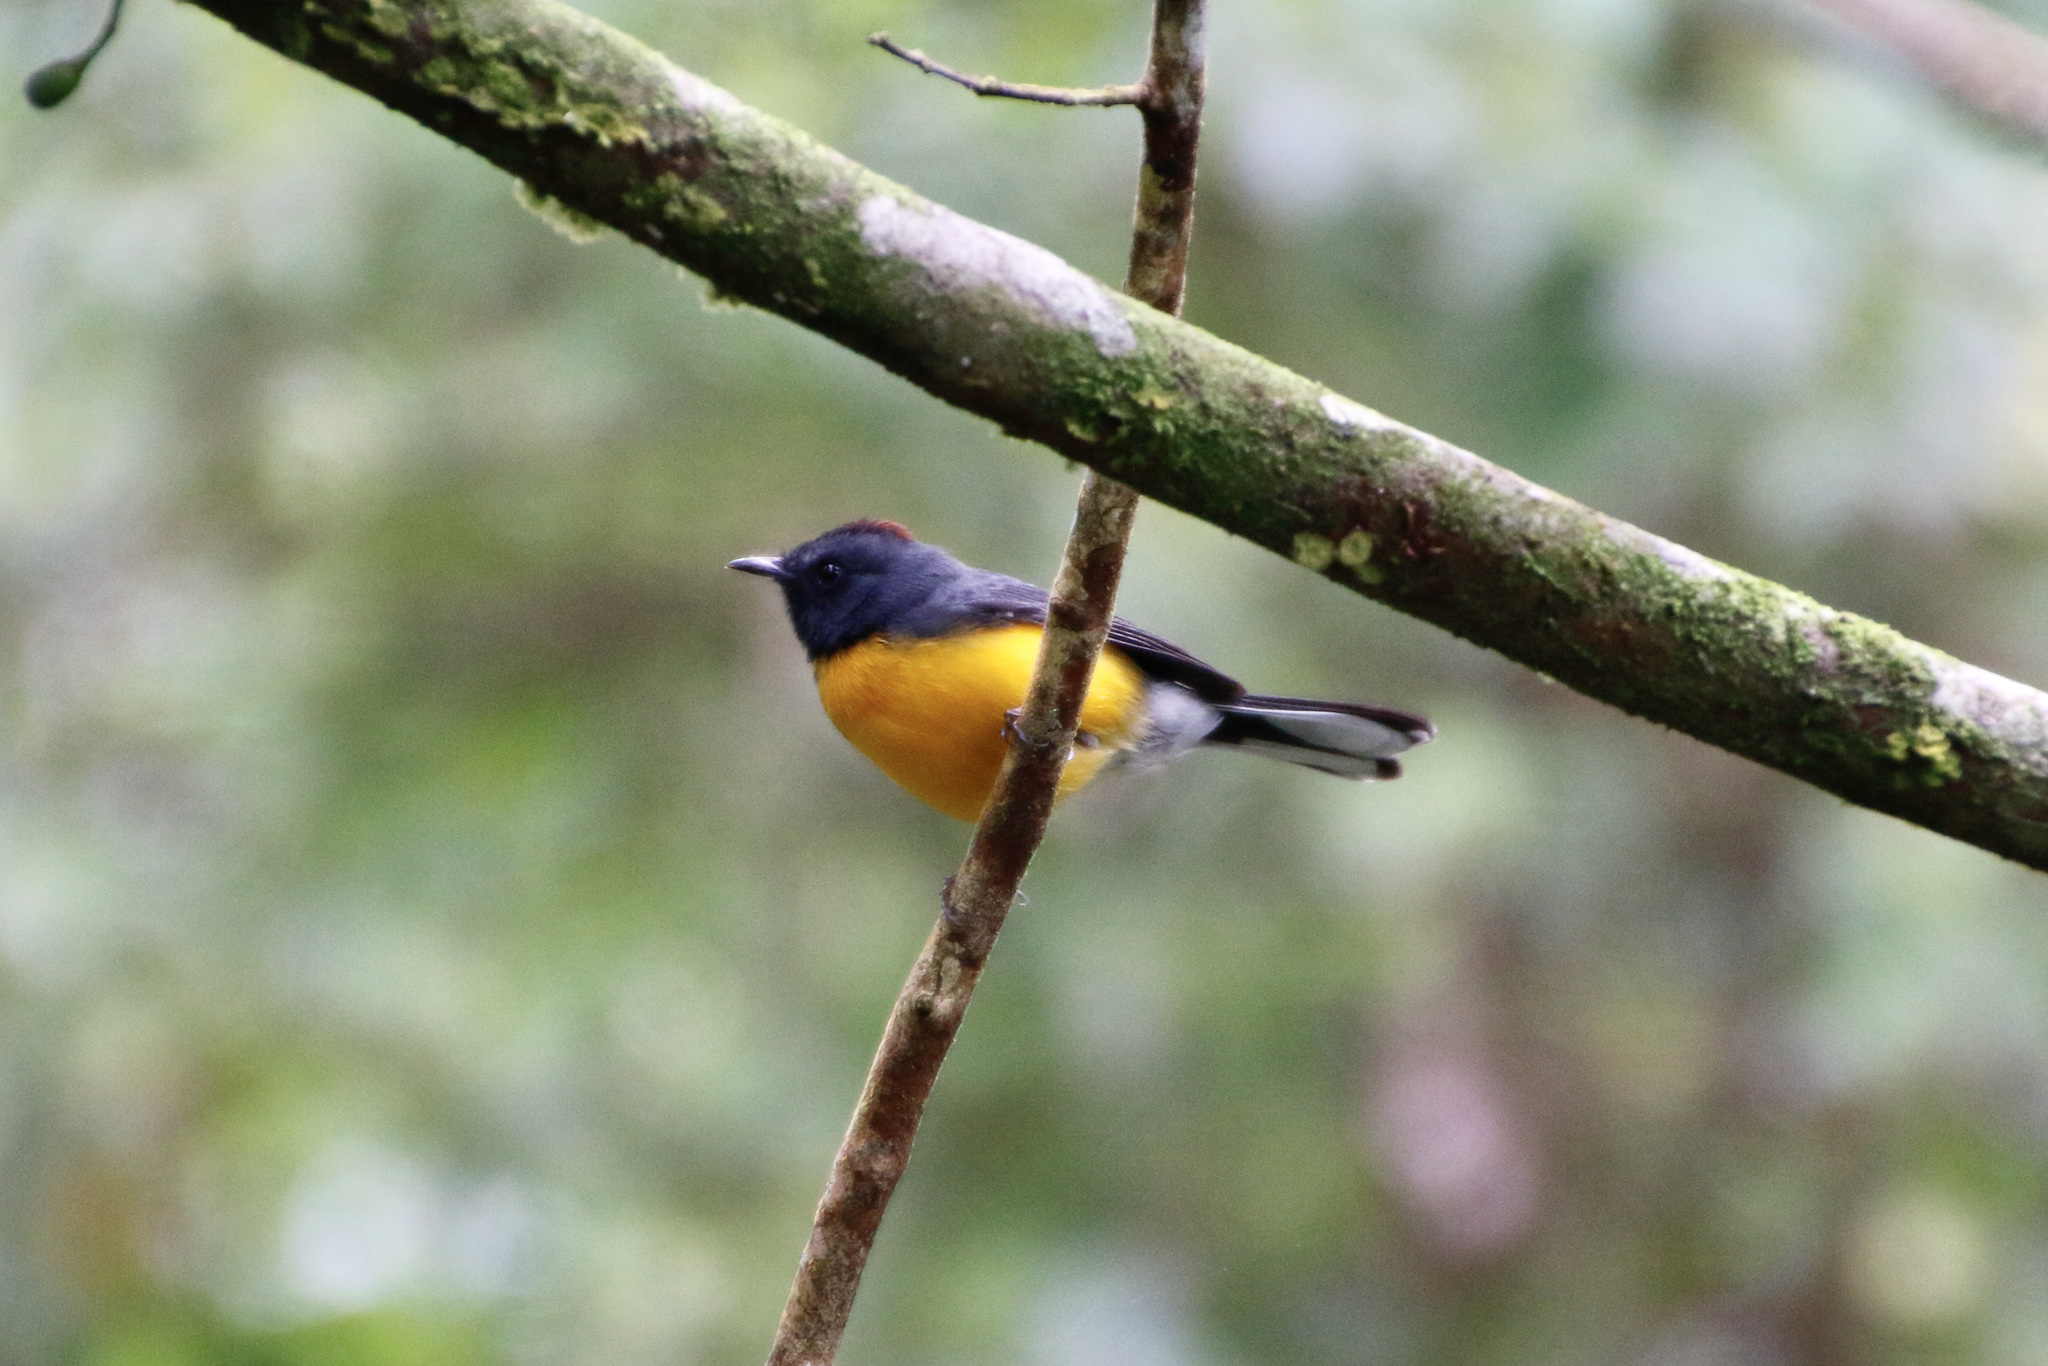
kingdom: Animalia
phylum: Chordata
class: Aves
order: Passeriformes
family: Parulidae
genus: Myioborus
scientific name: Myioborus miniatus
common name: Slate-throated redstart
